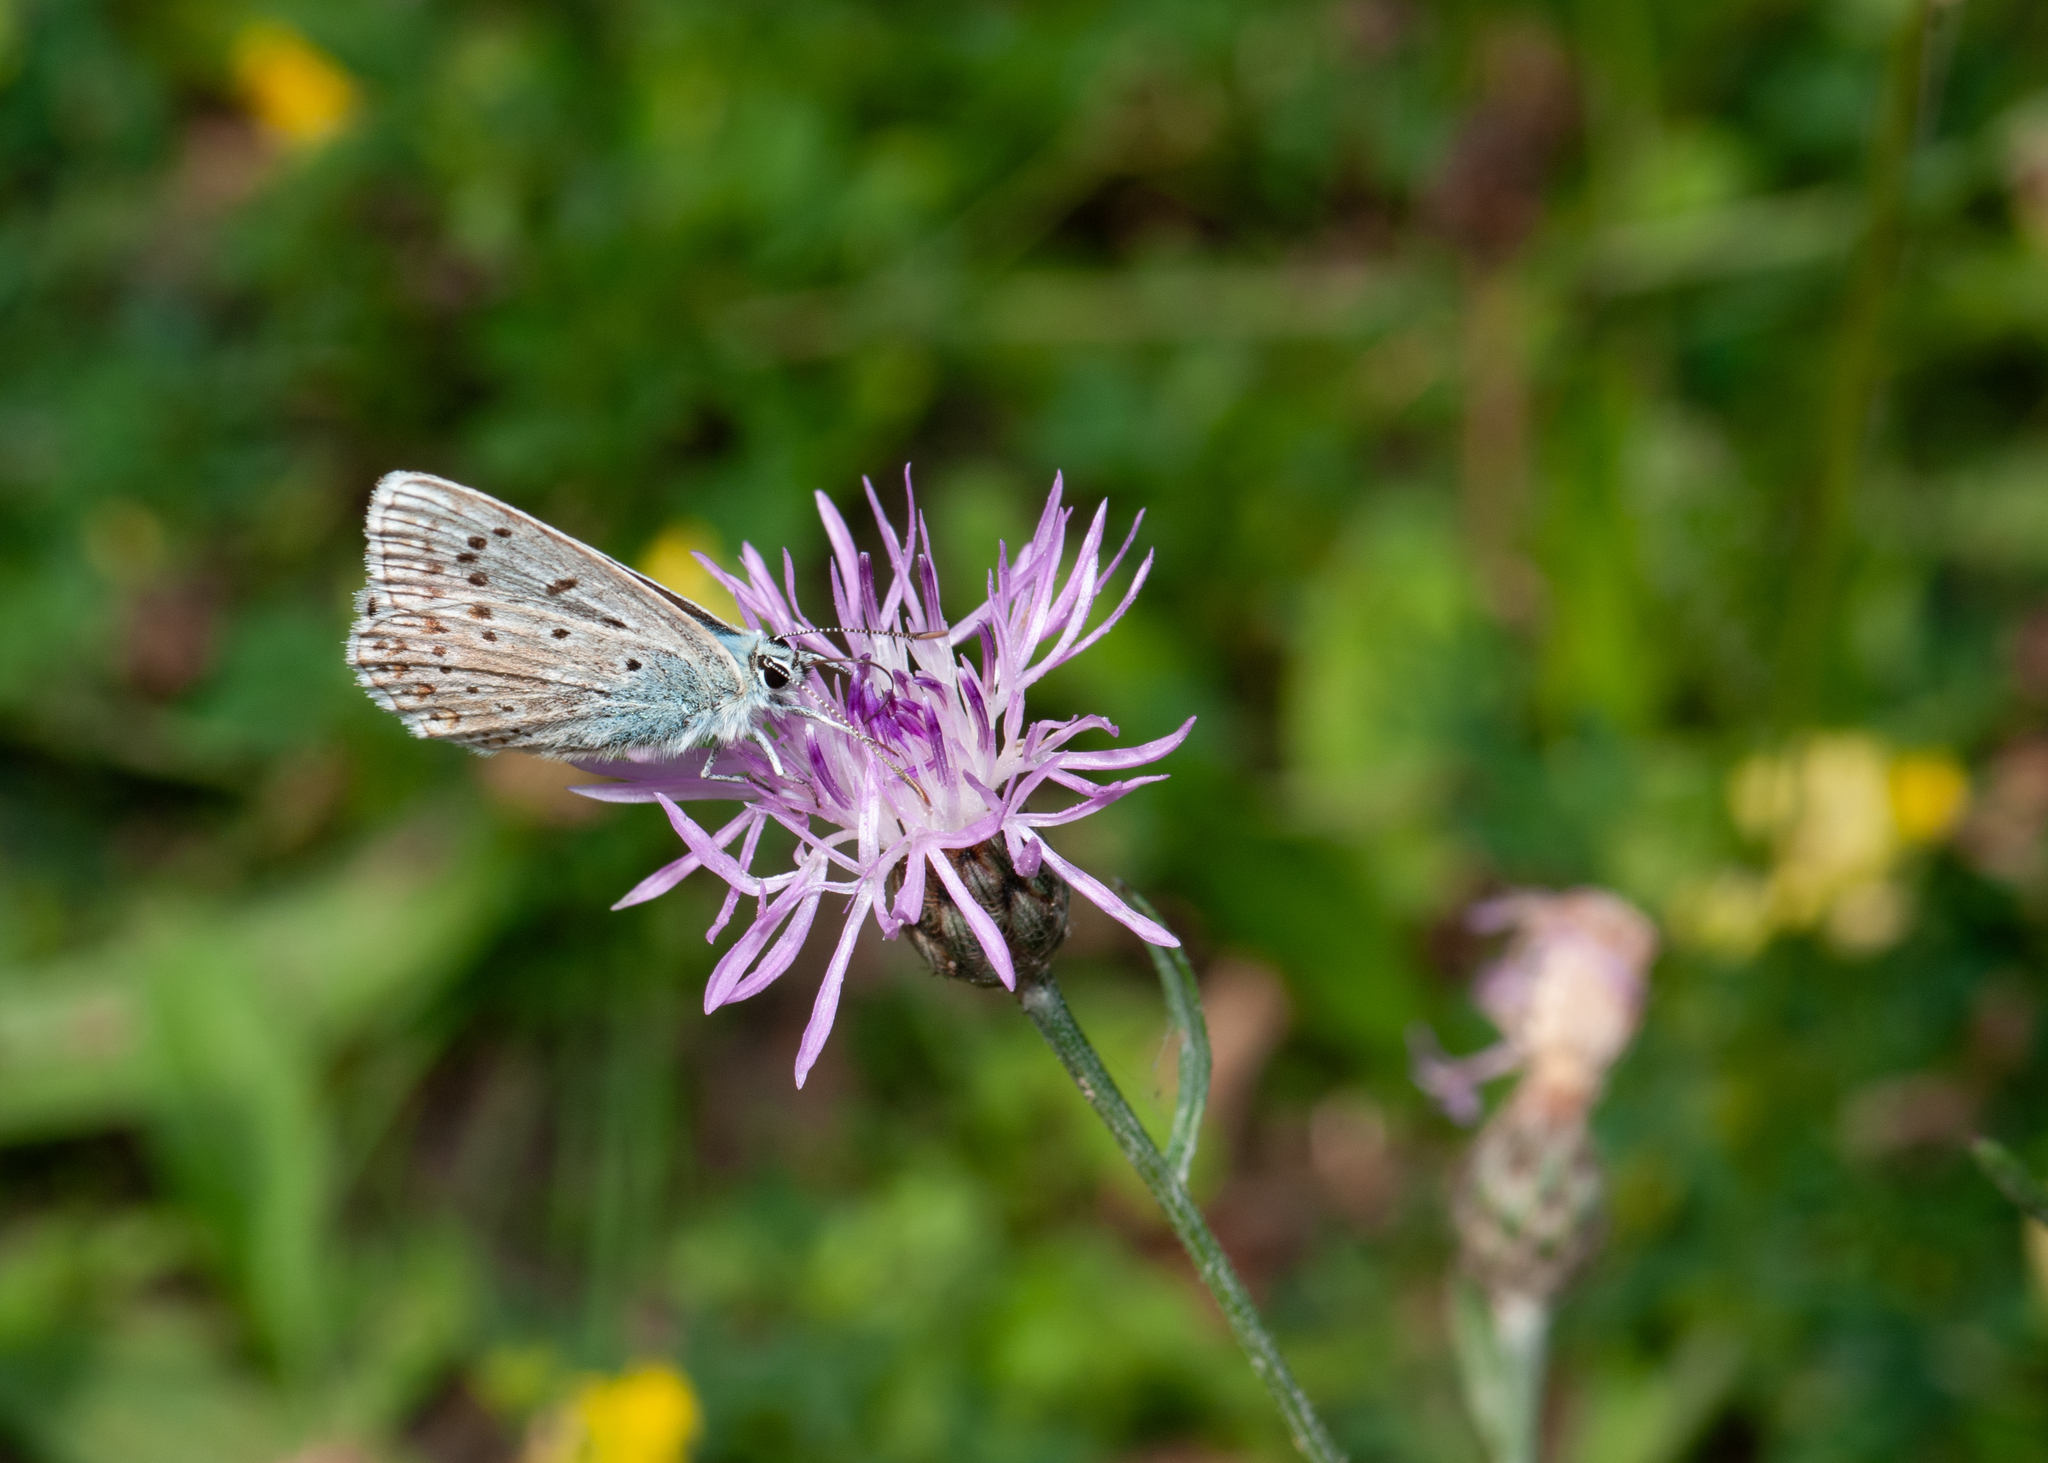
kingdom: Animalia
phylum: Arthropoda
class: Insecta
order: Lepidoptera
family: Lycaenidae
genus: Polyommatus
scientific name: Polyommatus icarus
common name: Common blue
